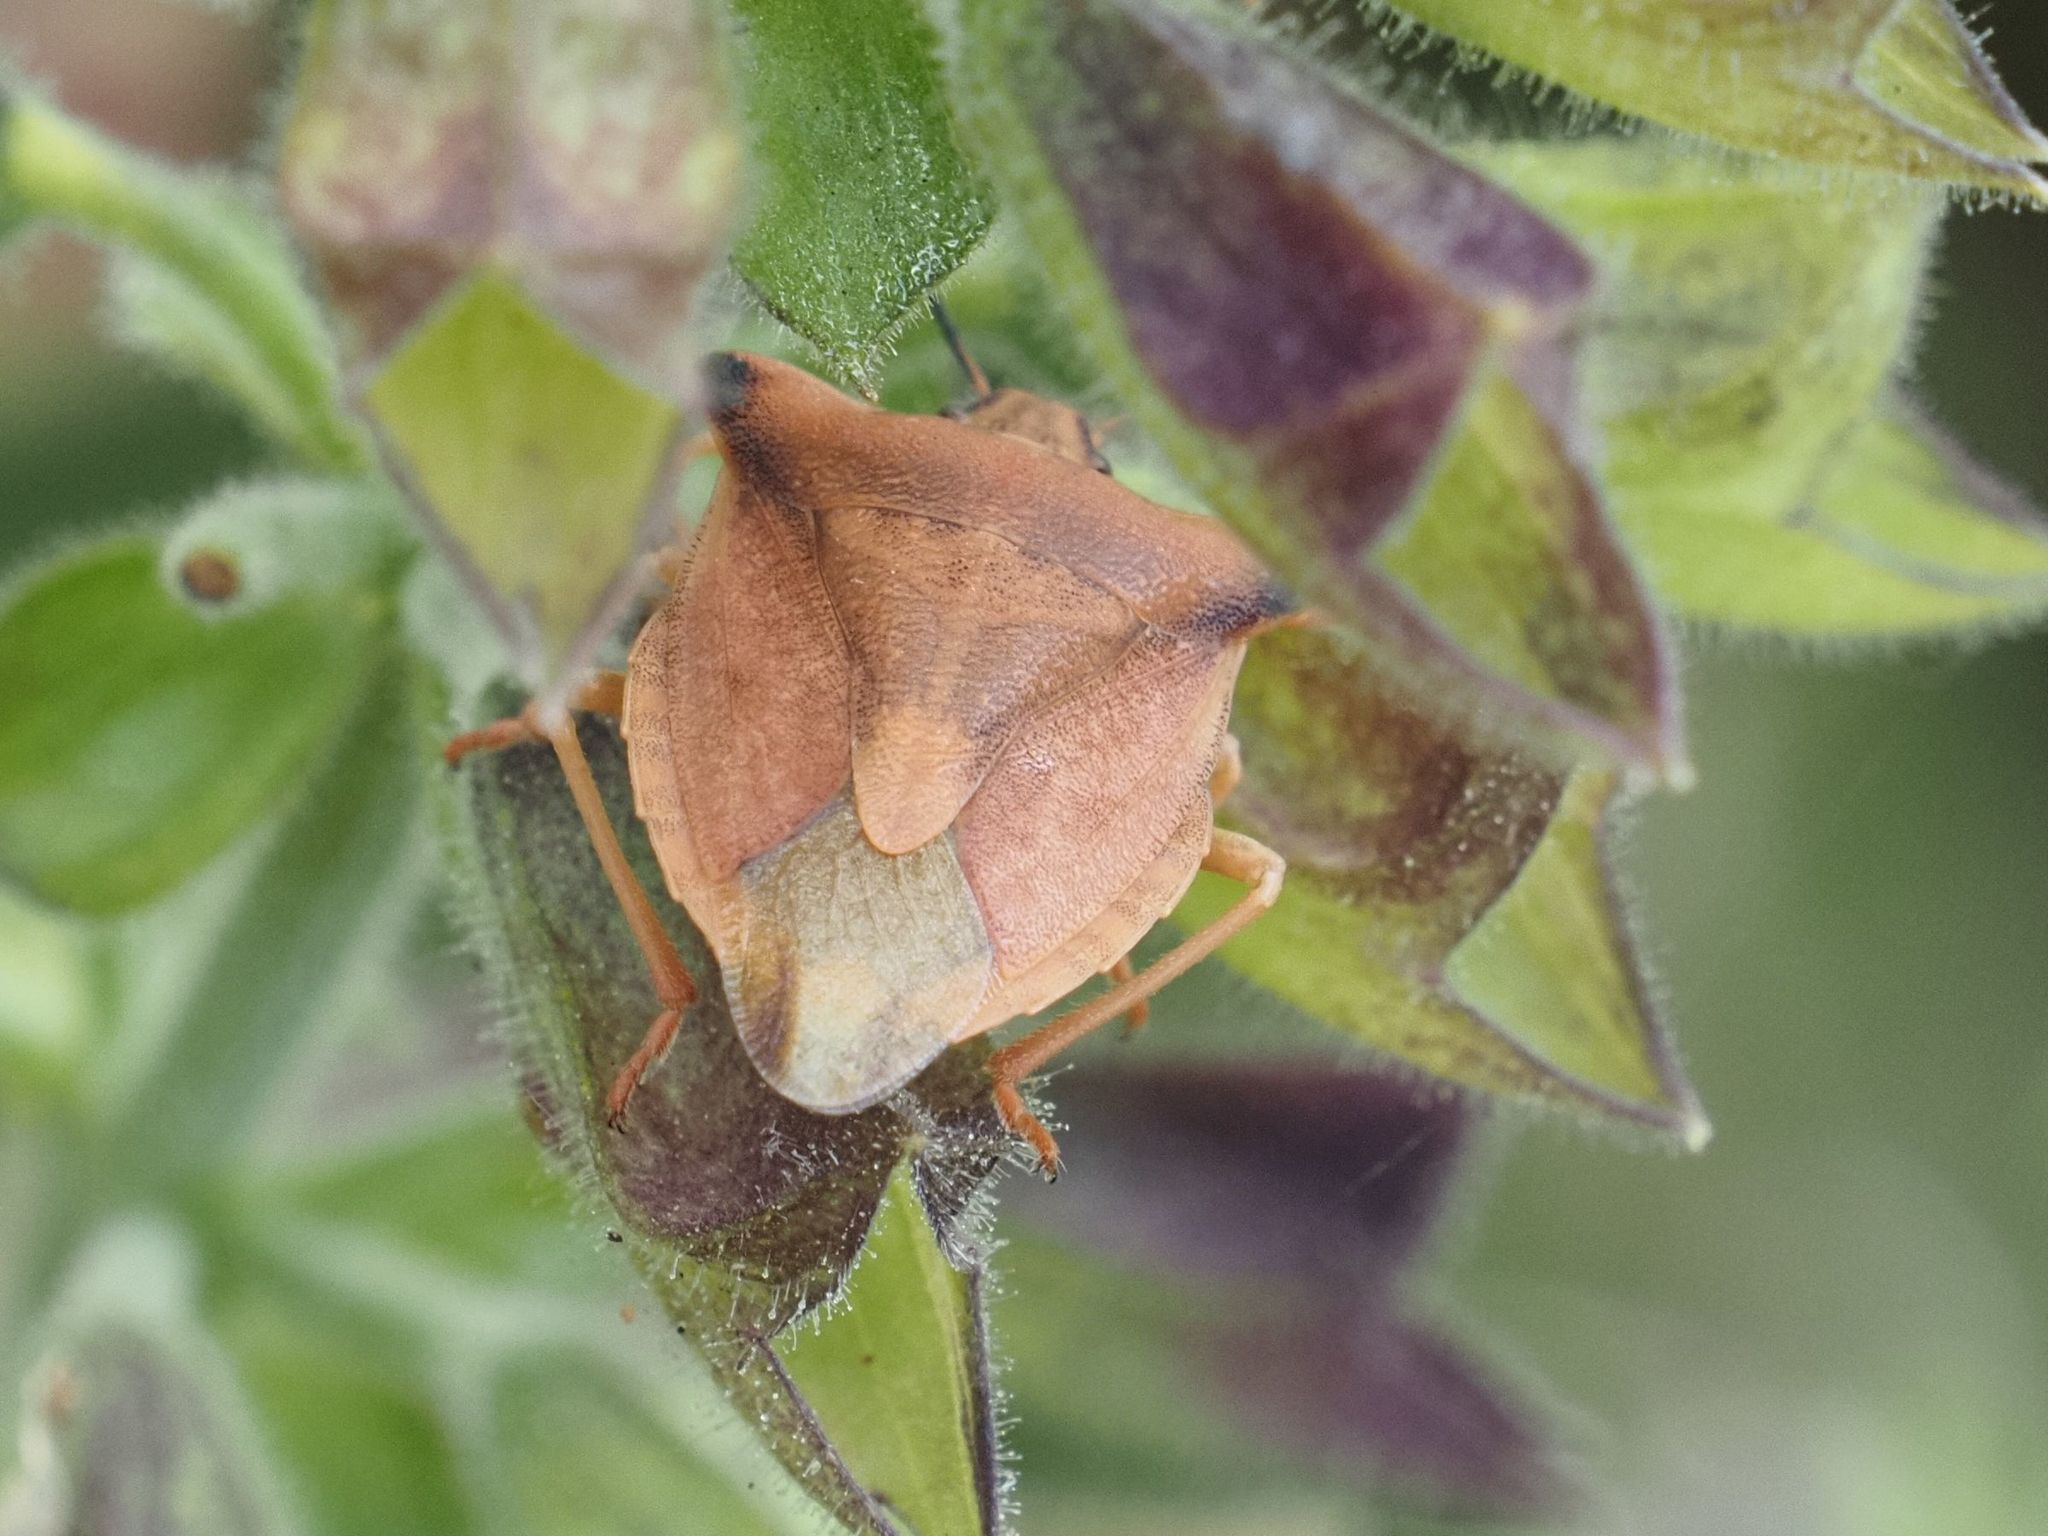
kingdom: Animalia
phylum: Arthropoda
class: Insecta
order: Hemiptera
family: Pentatomidae
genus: Carpocoris
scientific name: Carpocoris fuscispinus
